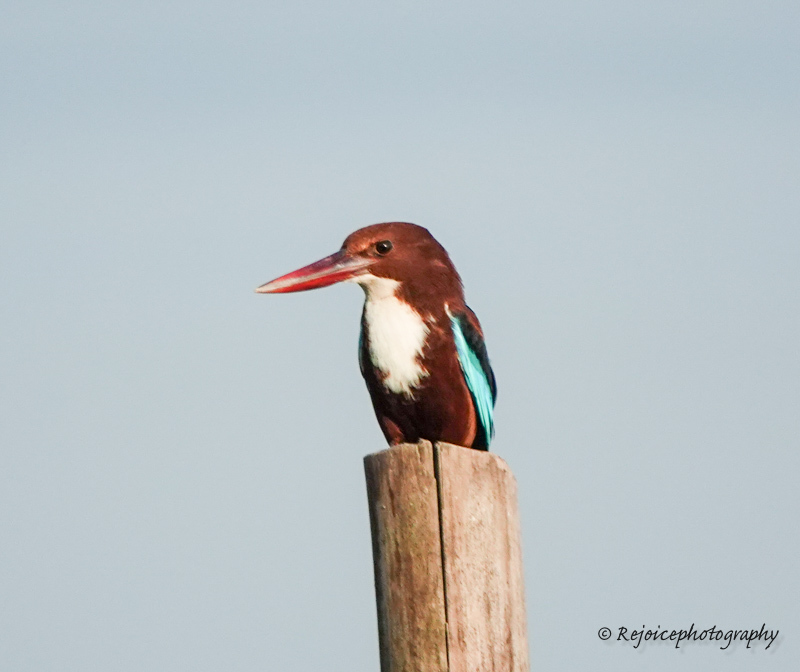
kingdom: Animalia
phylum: Chordata
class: Aves
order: Coraciiformes
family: Alcedinidae
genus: Halcyon
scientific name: Halcyon smyrnensis
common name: White-throated kingfisher
